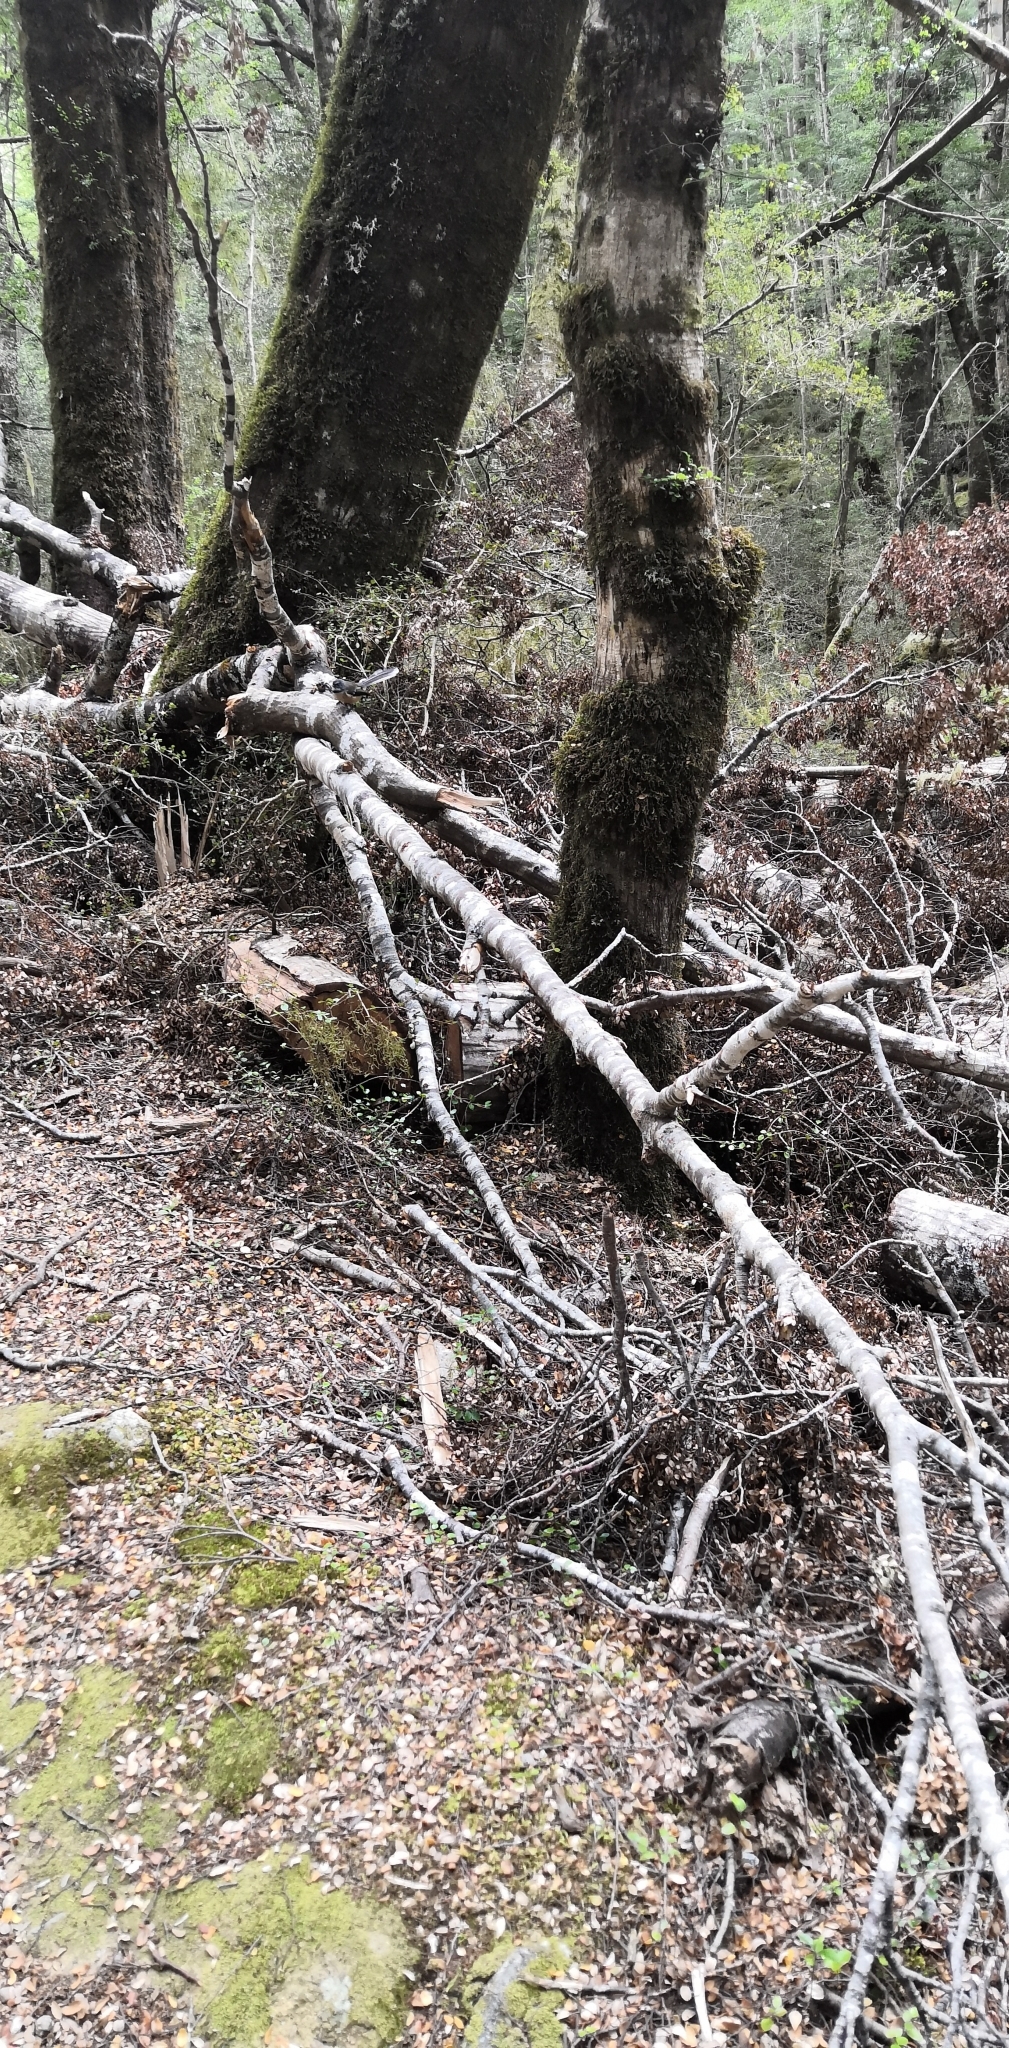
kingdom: Animalia
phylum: Chordata
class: Aves
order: Passeriformes
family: Rhipiduridae
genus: Rhipidura
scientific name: Rhipidura fuliginosa
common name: New zealand fantail
